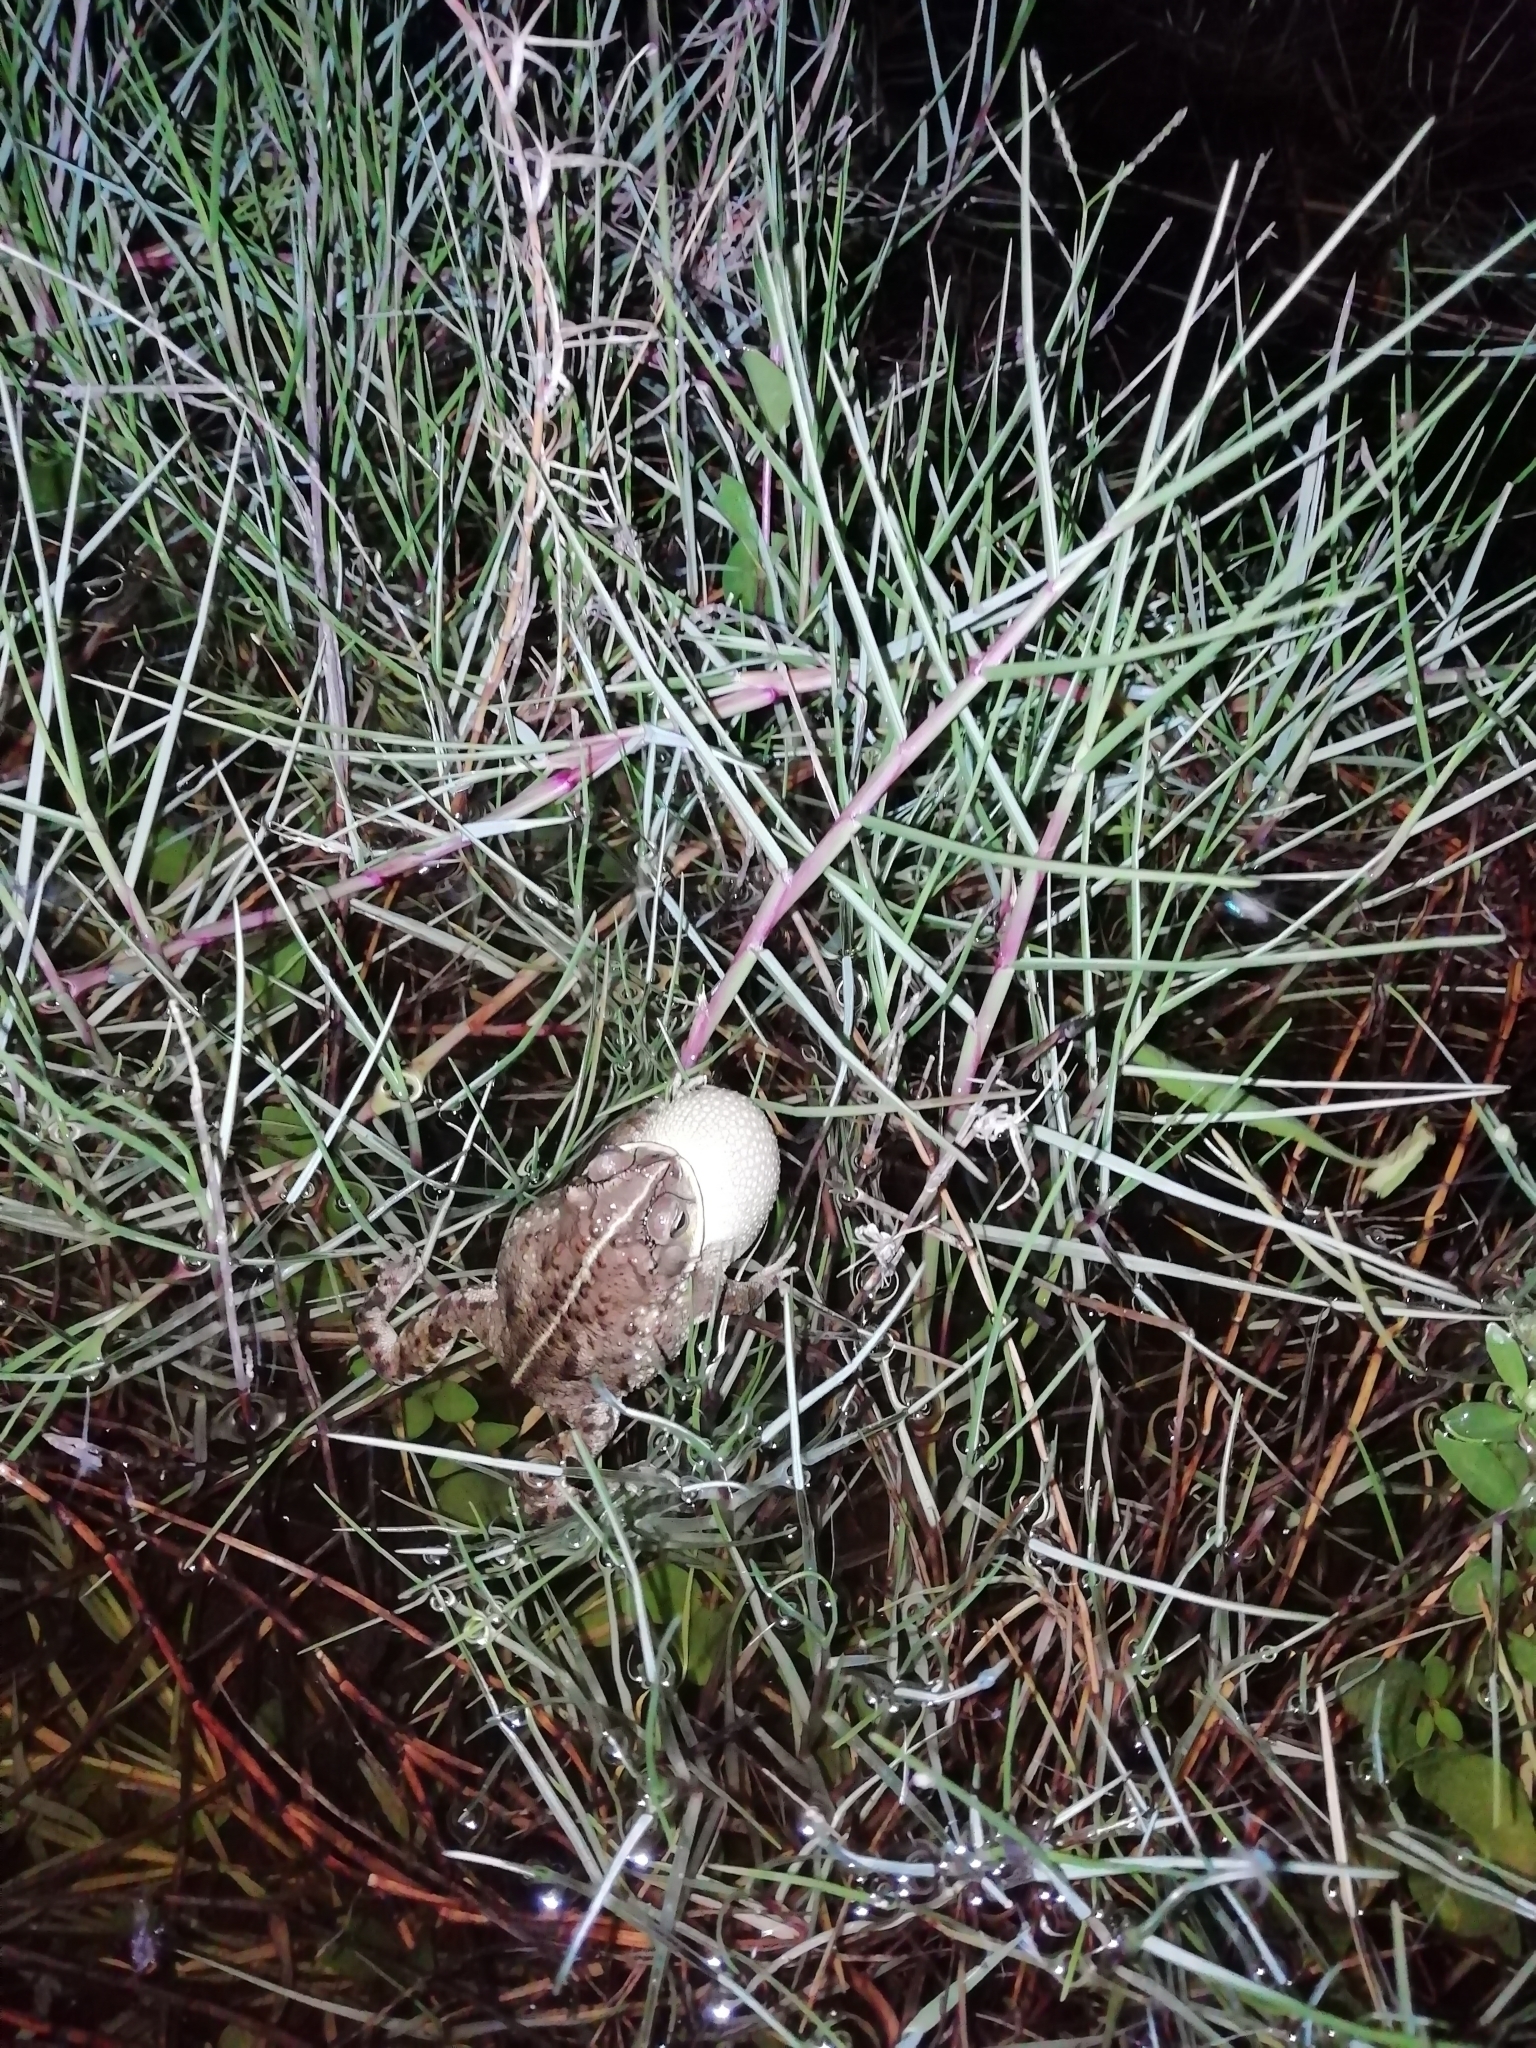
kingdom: Animalia
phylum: Chordata
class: Amphibia
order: Anura
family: Bufonidae
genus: Rhinella
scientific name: Rhinella dorbignyi
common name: D´orbigny’s toad
